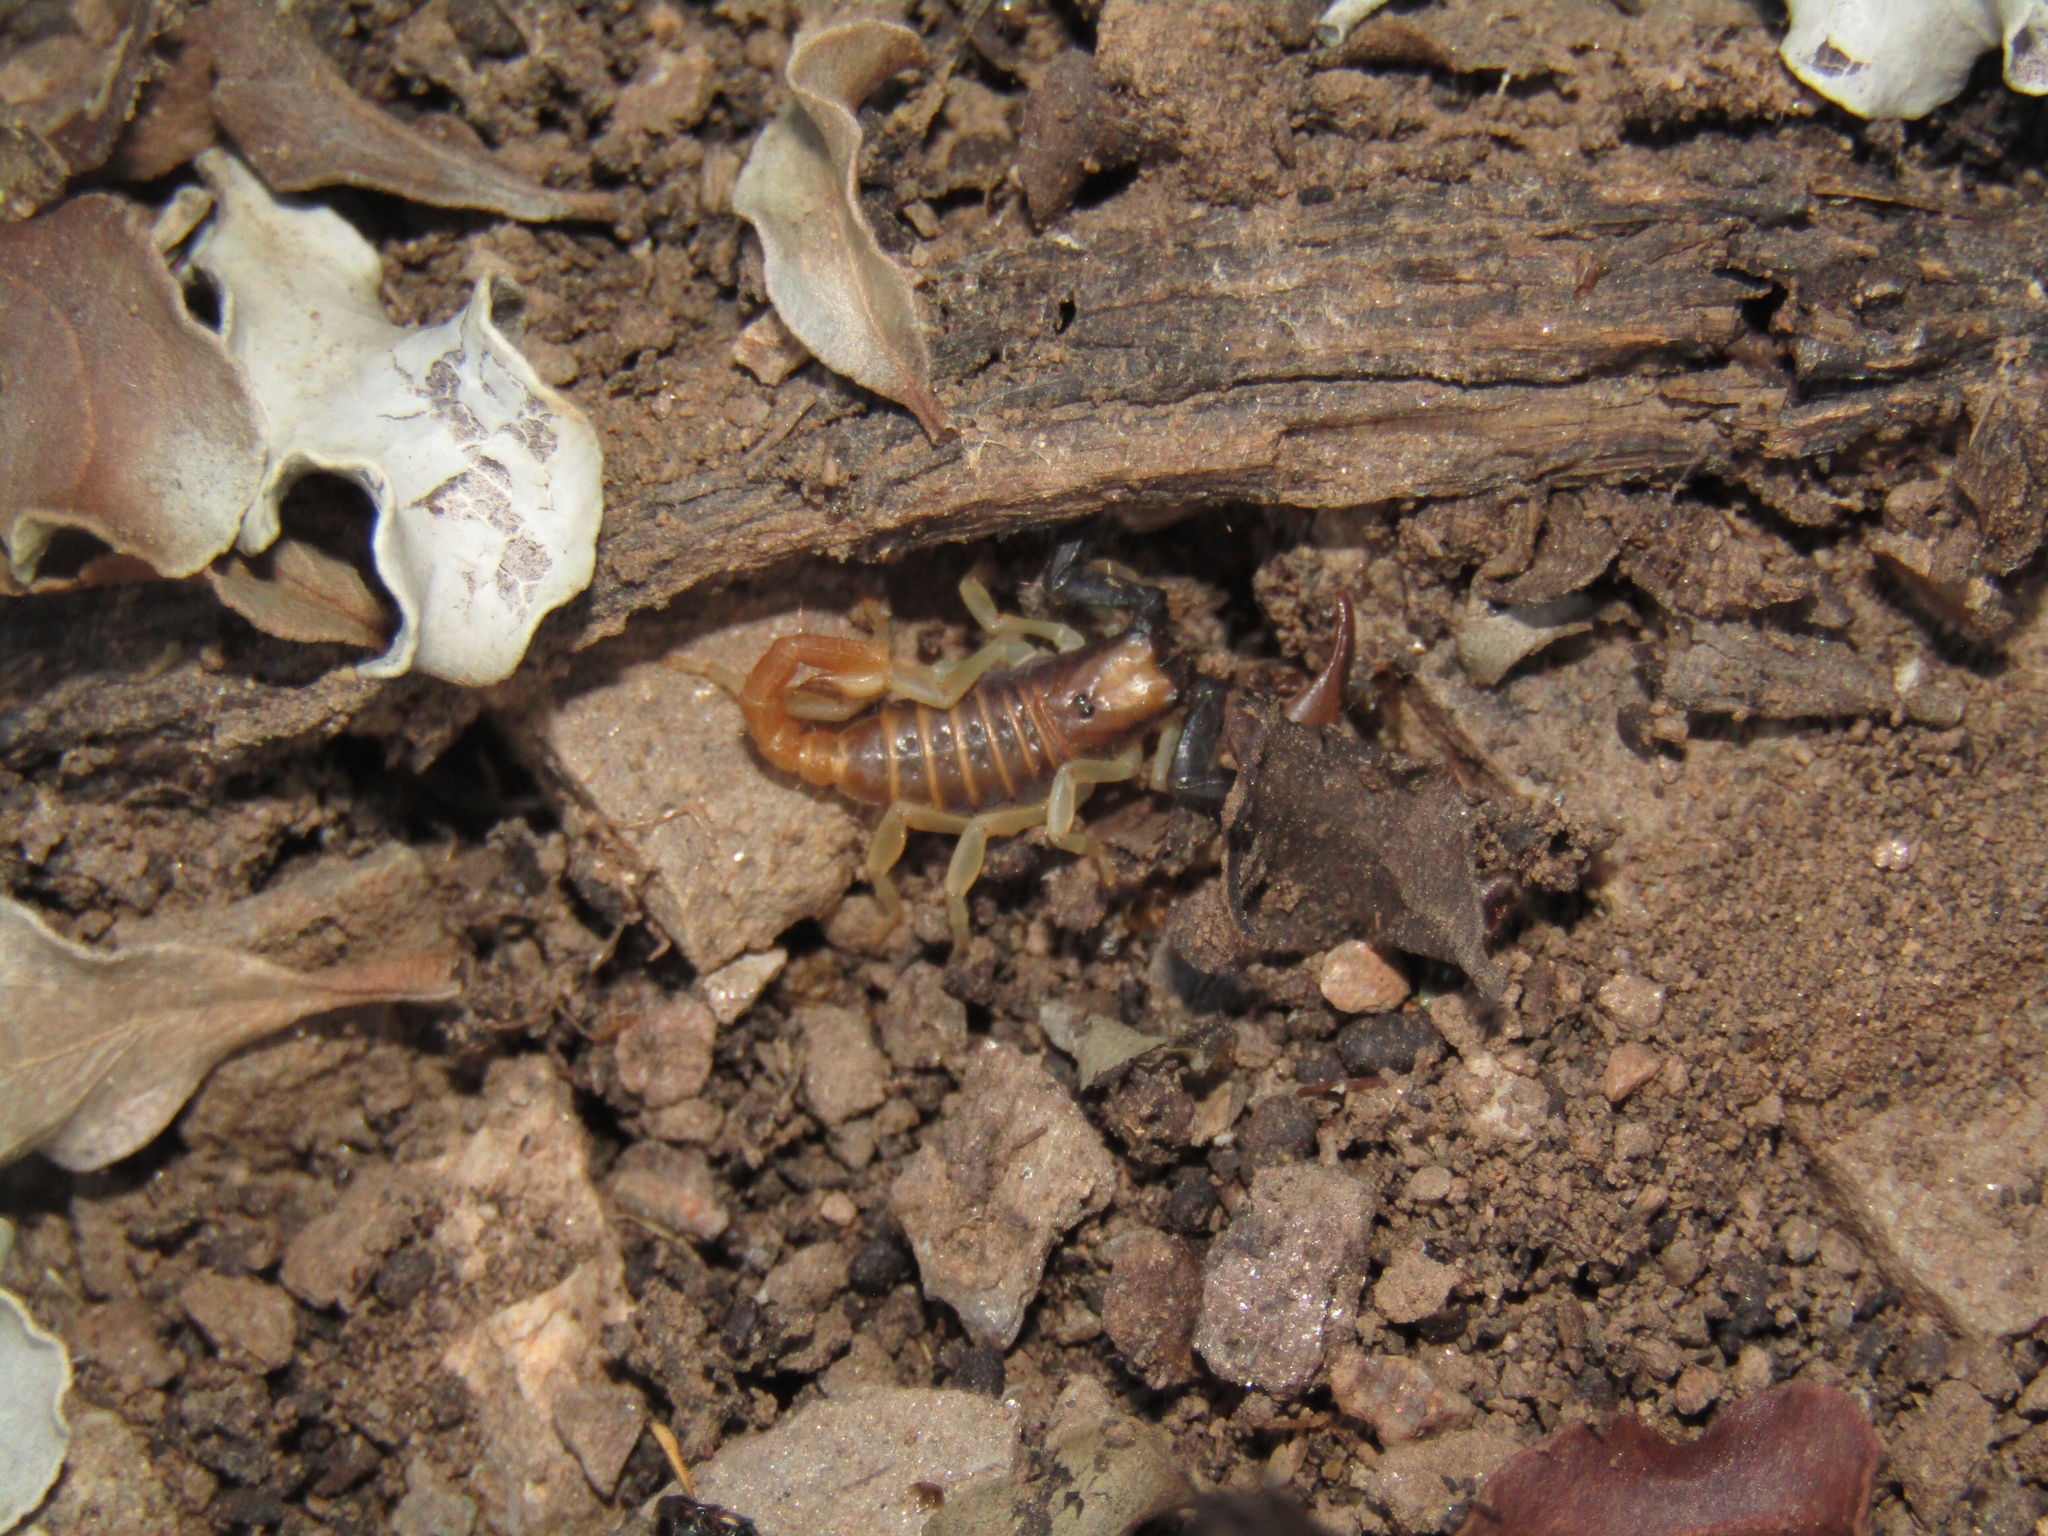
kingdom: Animalia
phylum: Arthropoda
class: Arachnida
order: Scorpiones
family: Scorpionidae
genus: Opistophthalmus
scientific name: Opistophthalmus karrooensis
